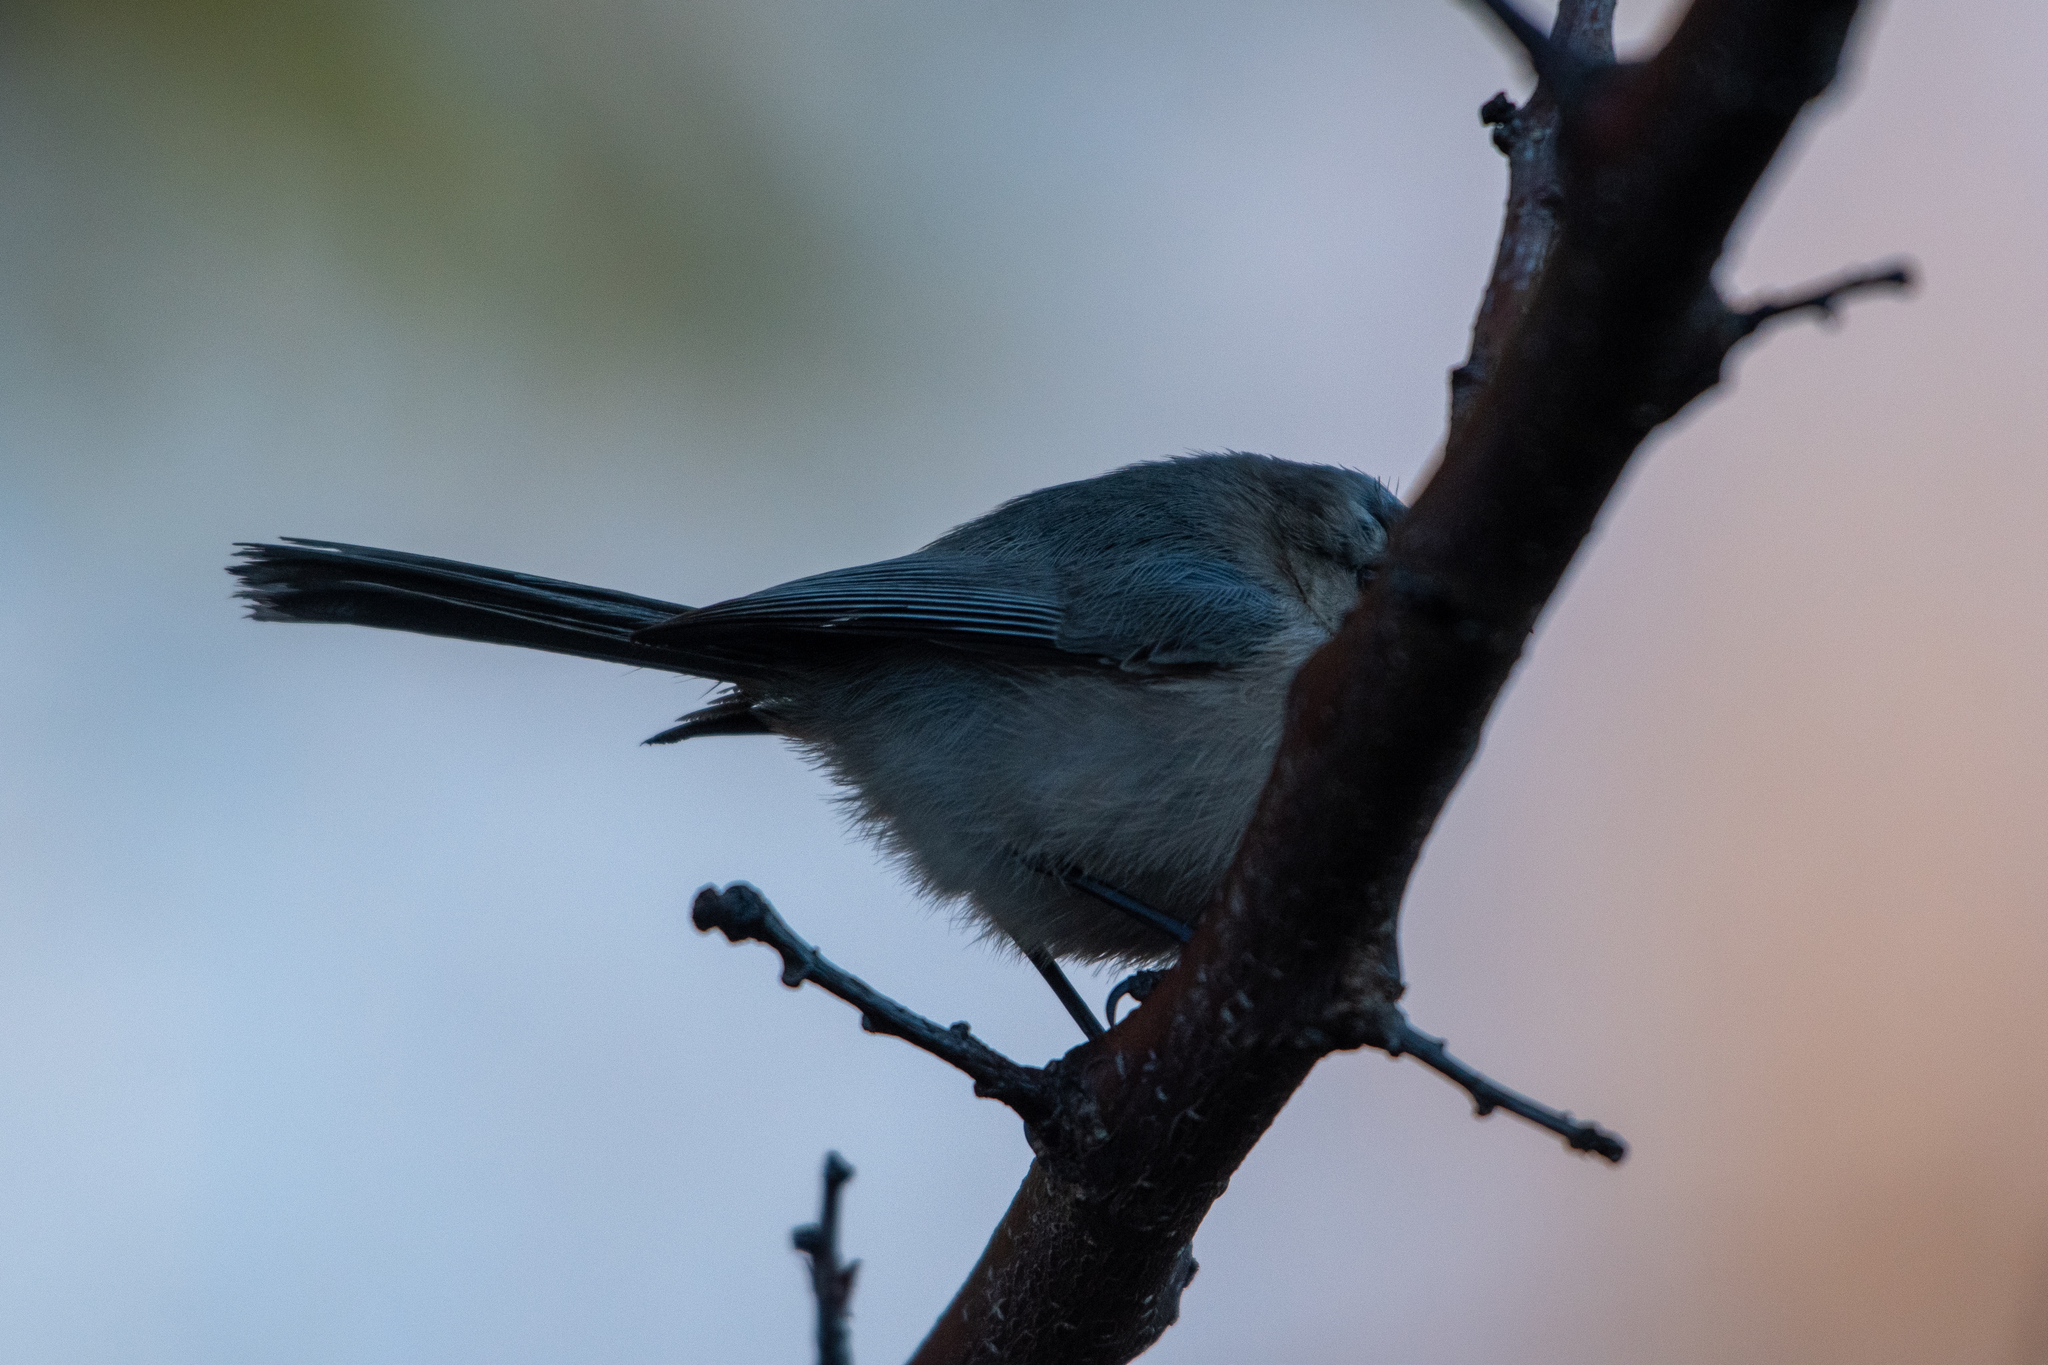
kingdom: Animalia
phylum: Chordata
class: Aves
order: Passeriformes
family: Aegithalidae
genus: Psaltriparus
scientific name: Psaltriparus minimus
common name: American bushtit
